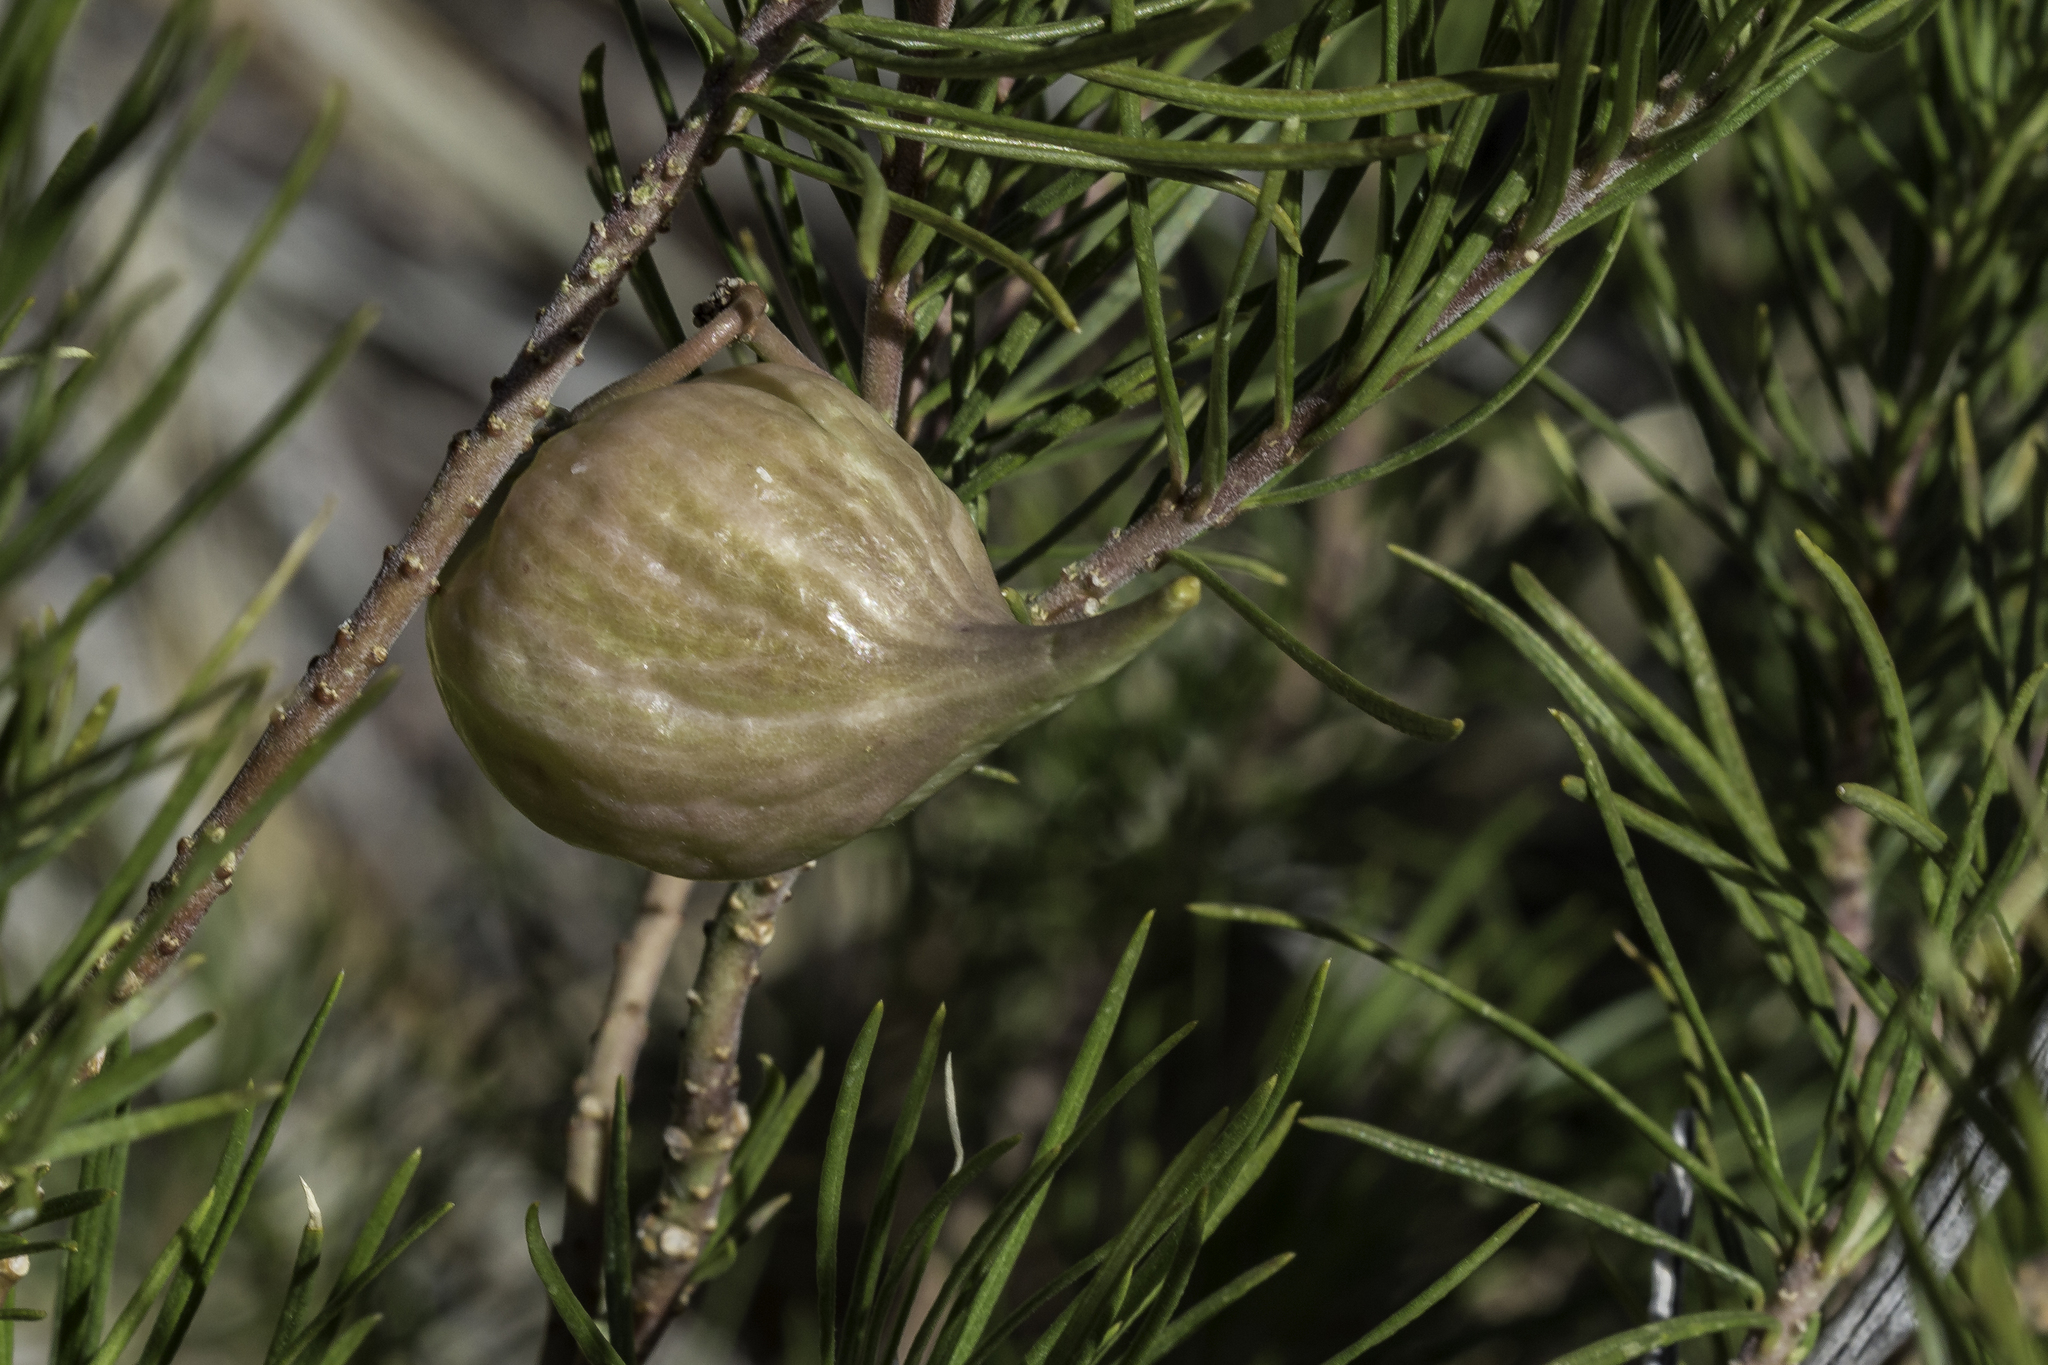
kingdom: Plantae
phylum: Tracheophyta
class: Magnoliopsida
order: Gentianales
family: Apocynaceae
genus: Asclepias
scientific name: Asclepias linaria
